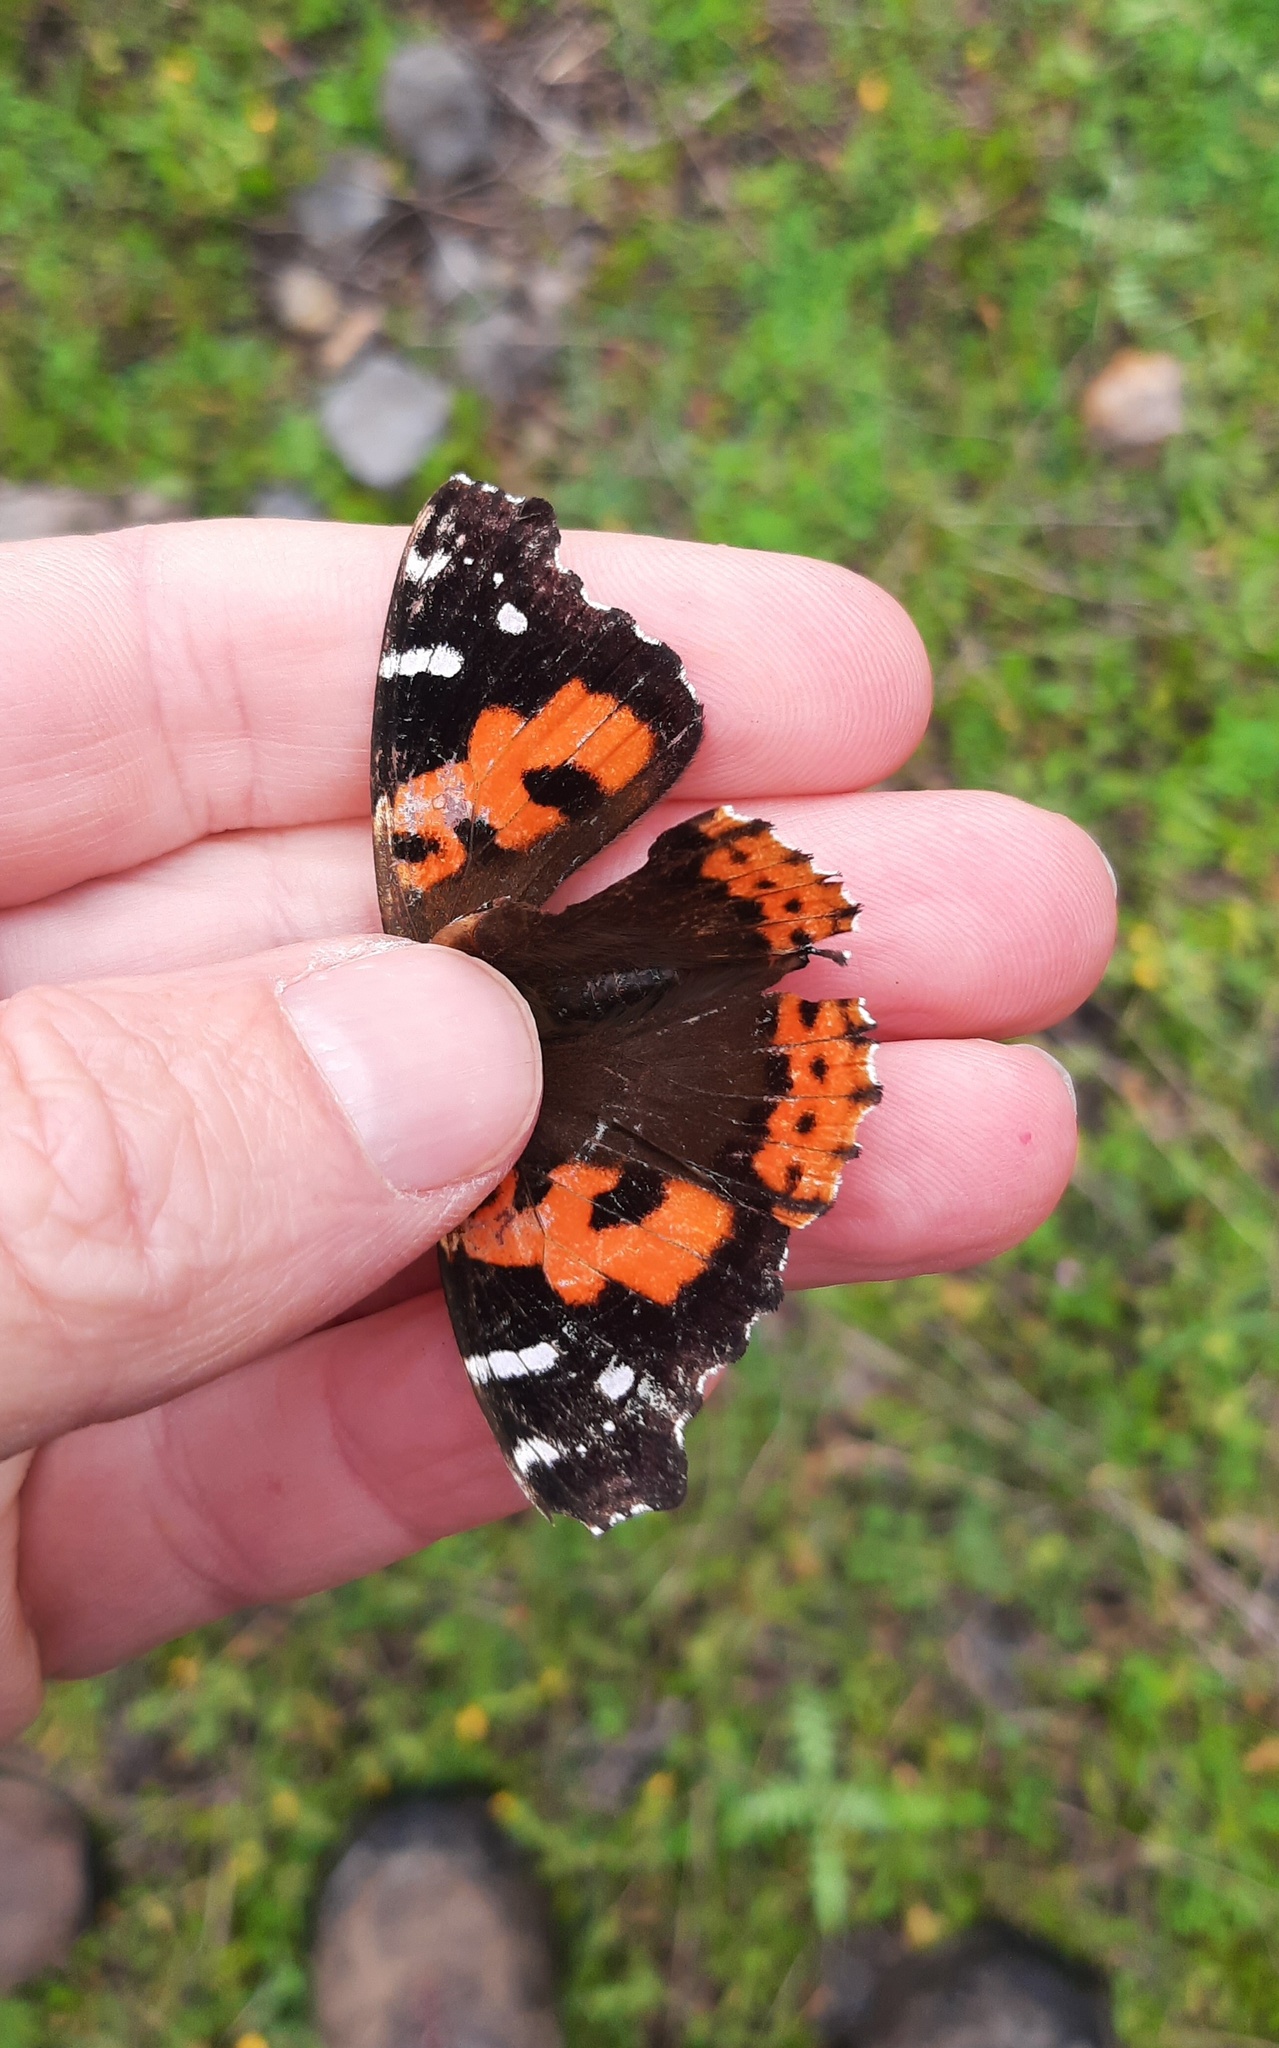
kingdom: Animalia
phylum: Arthropoda
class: Insecta
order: Lepidoptera
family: Nymphalidae
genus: Vanessa
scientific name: Vanessa vulcania
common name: Canary red admiral
